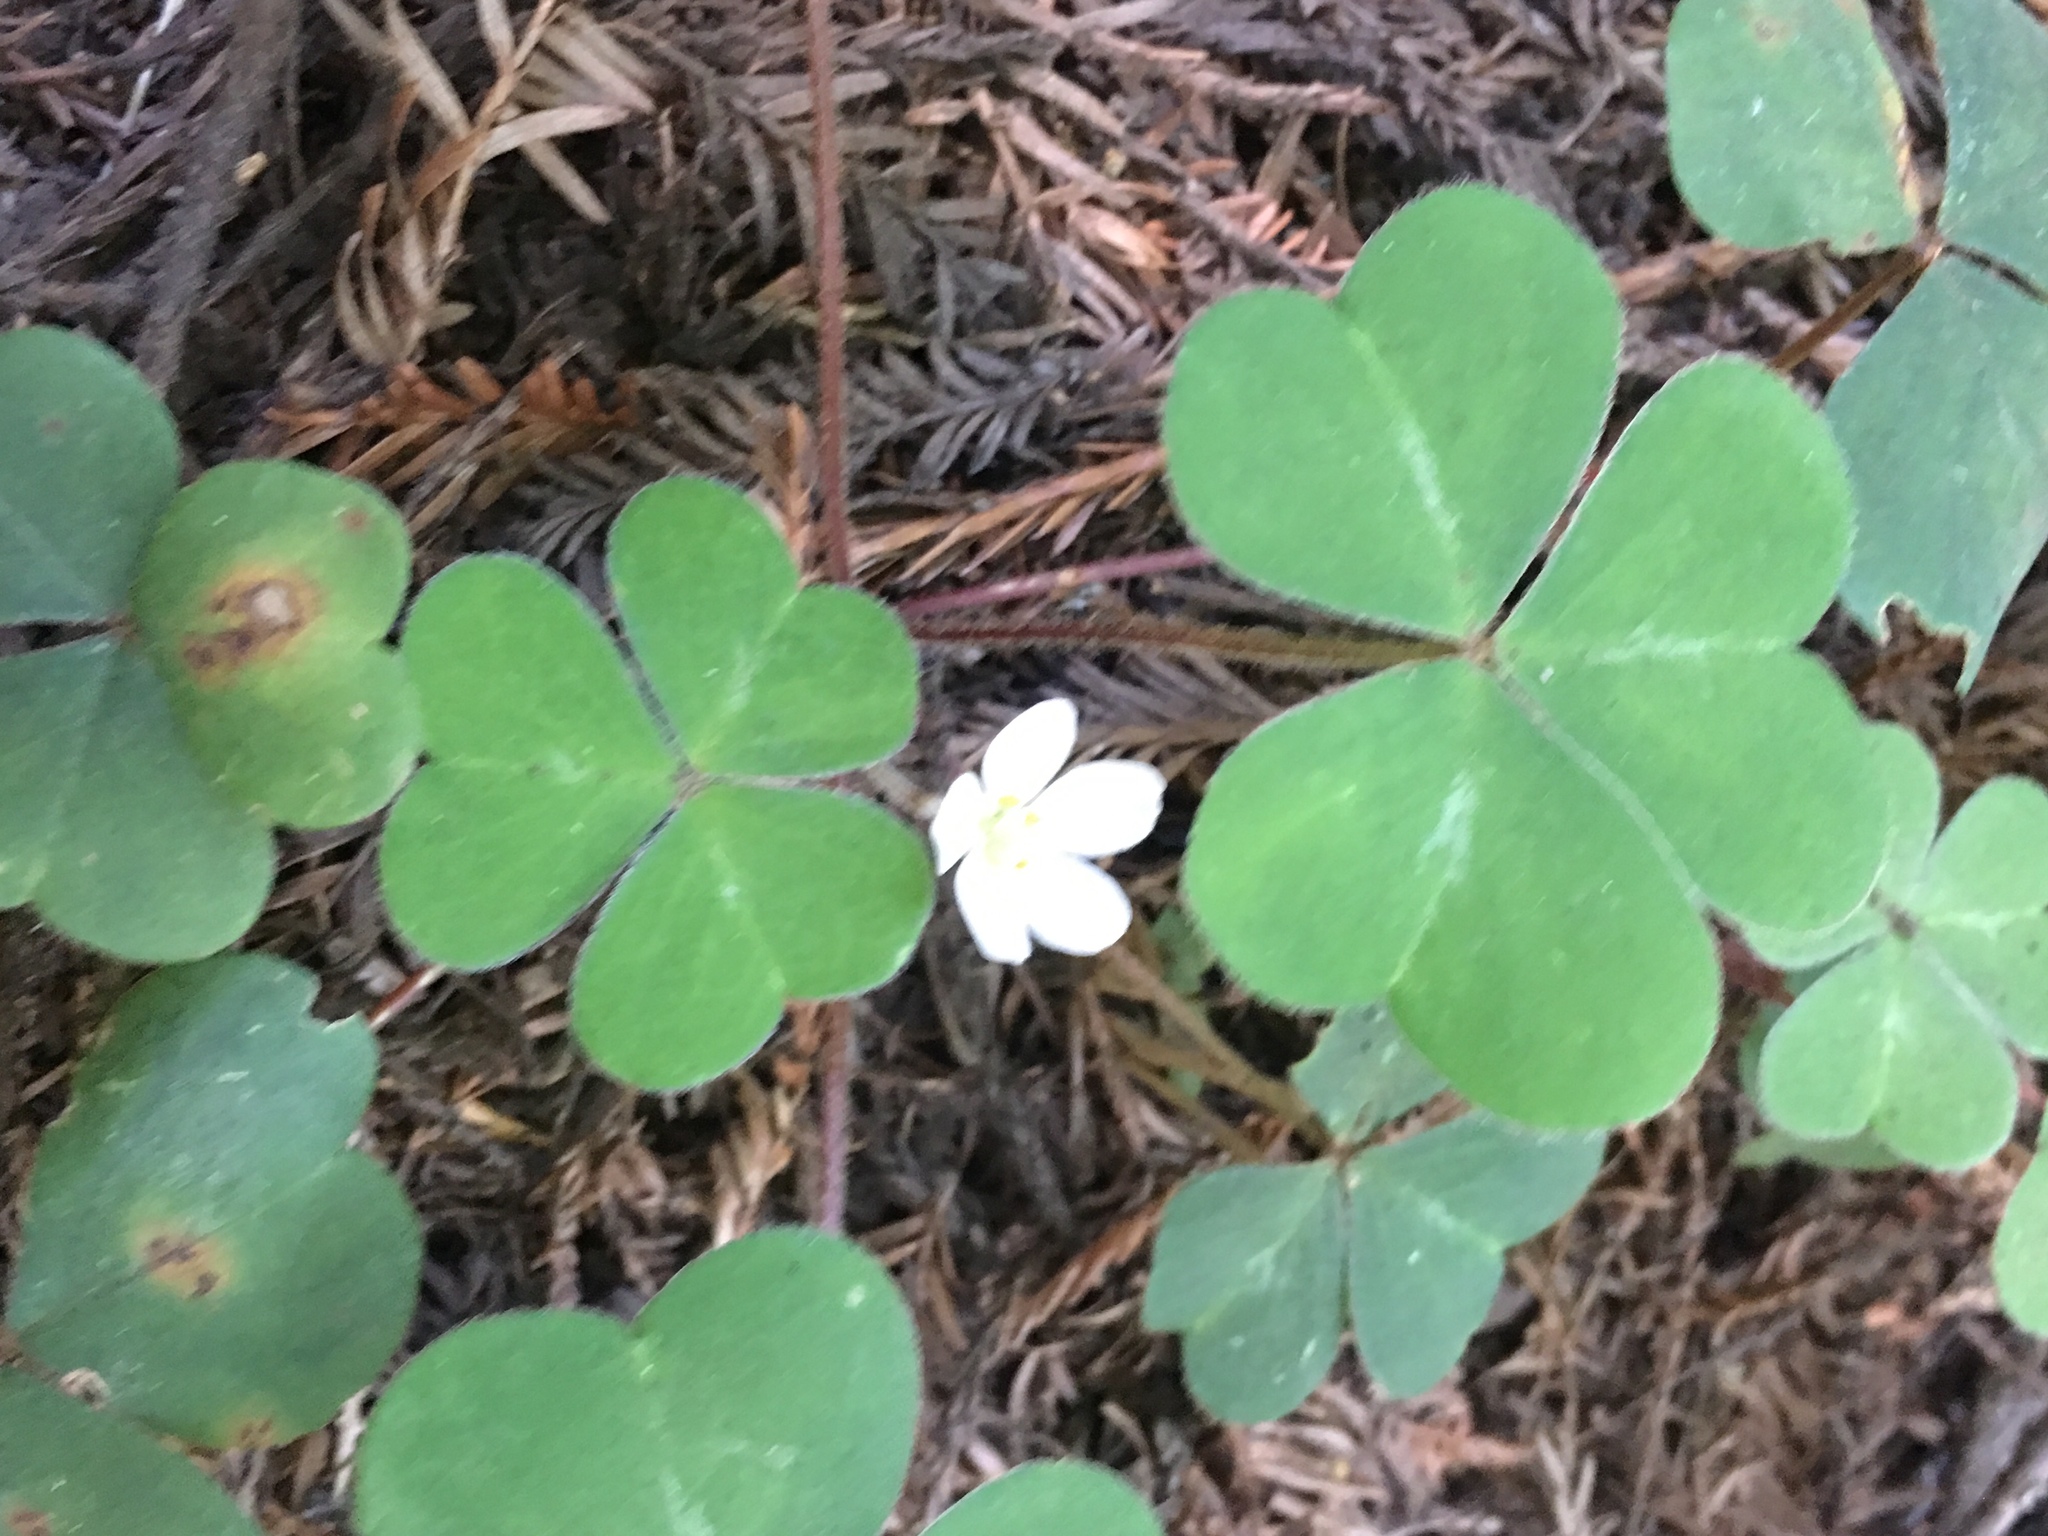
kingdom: Plantae
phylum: Tracheophyta
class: Magnoliopsida
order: Oxalidales
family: Oxalidaceae
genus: Oxalis
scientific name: Oxalis oregana
